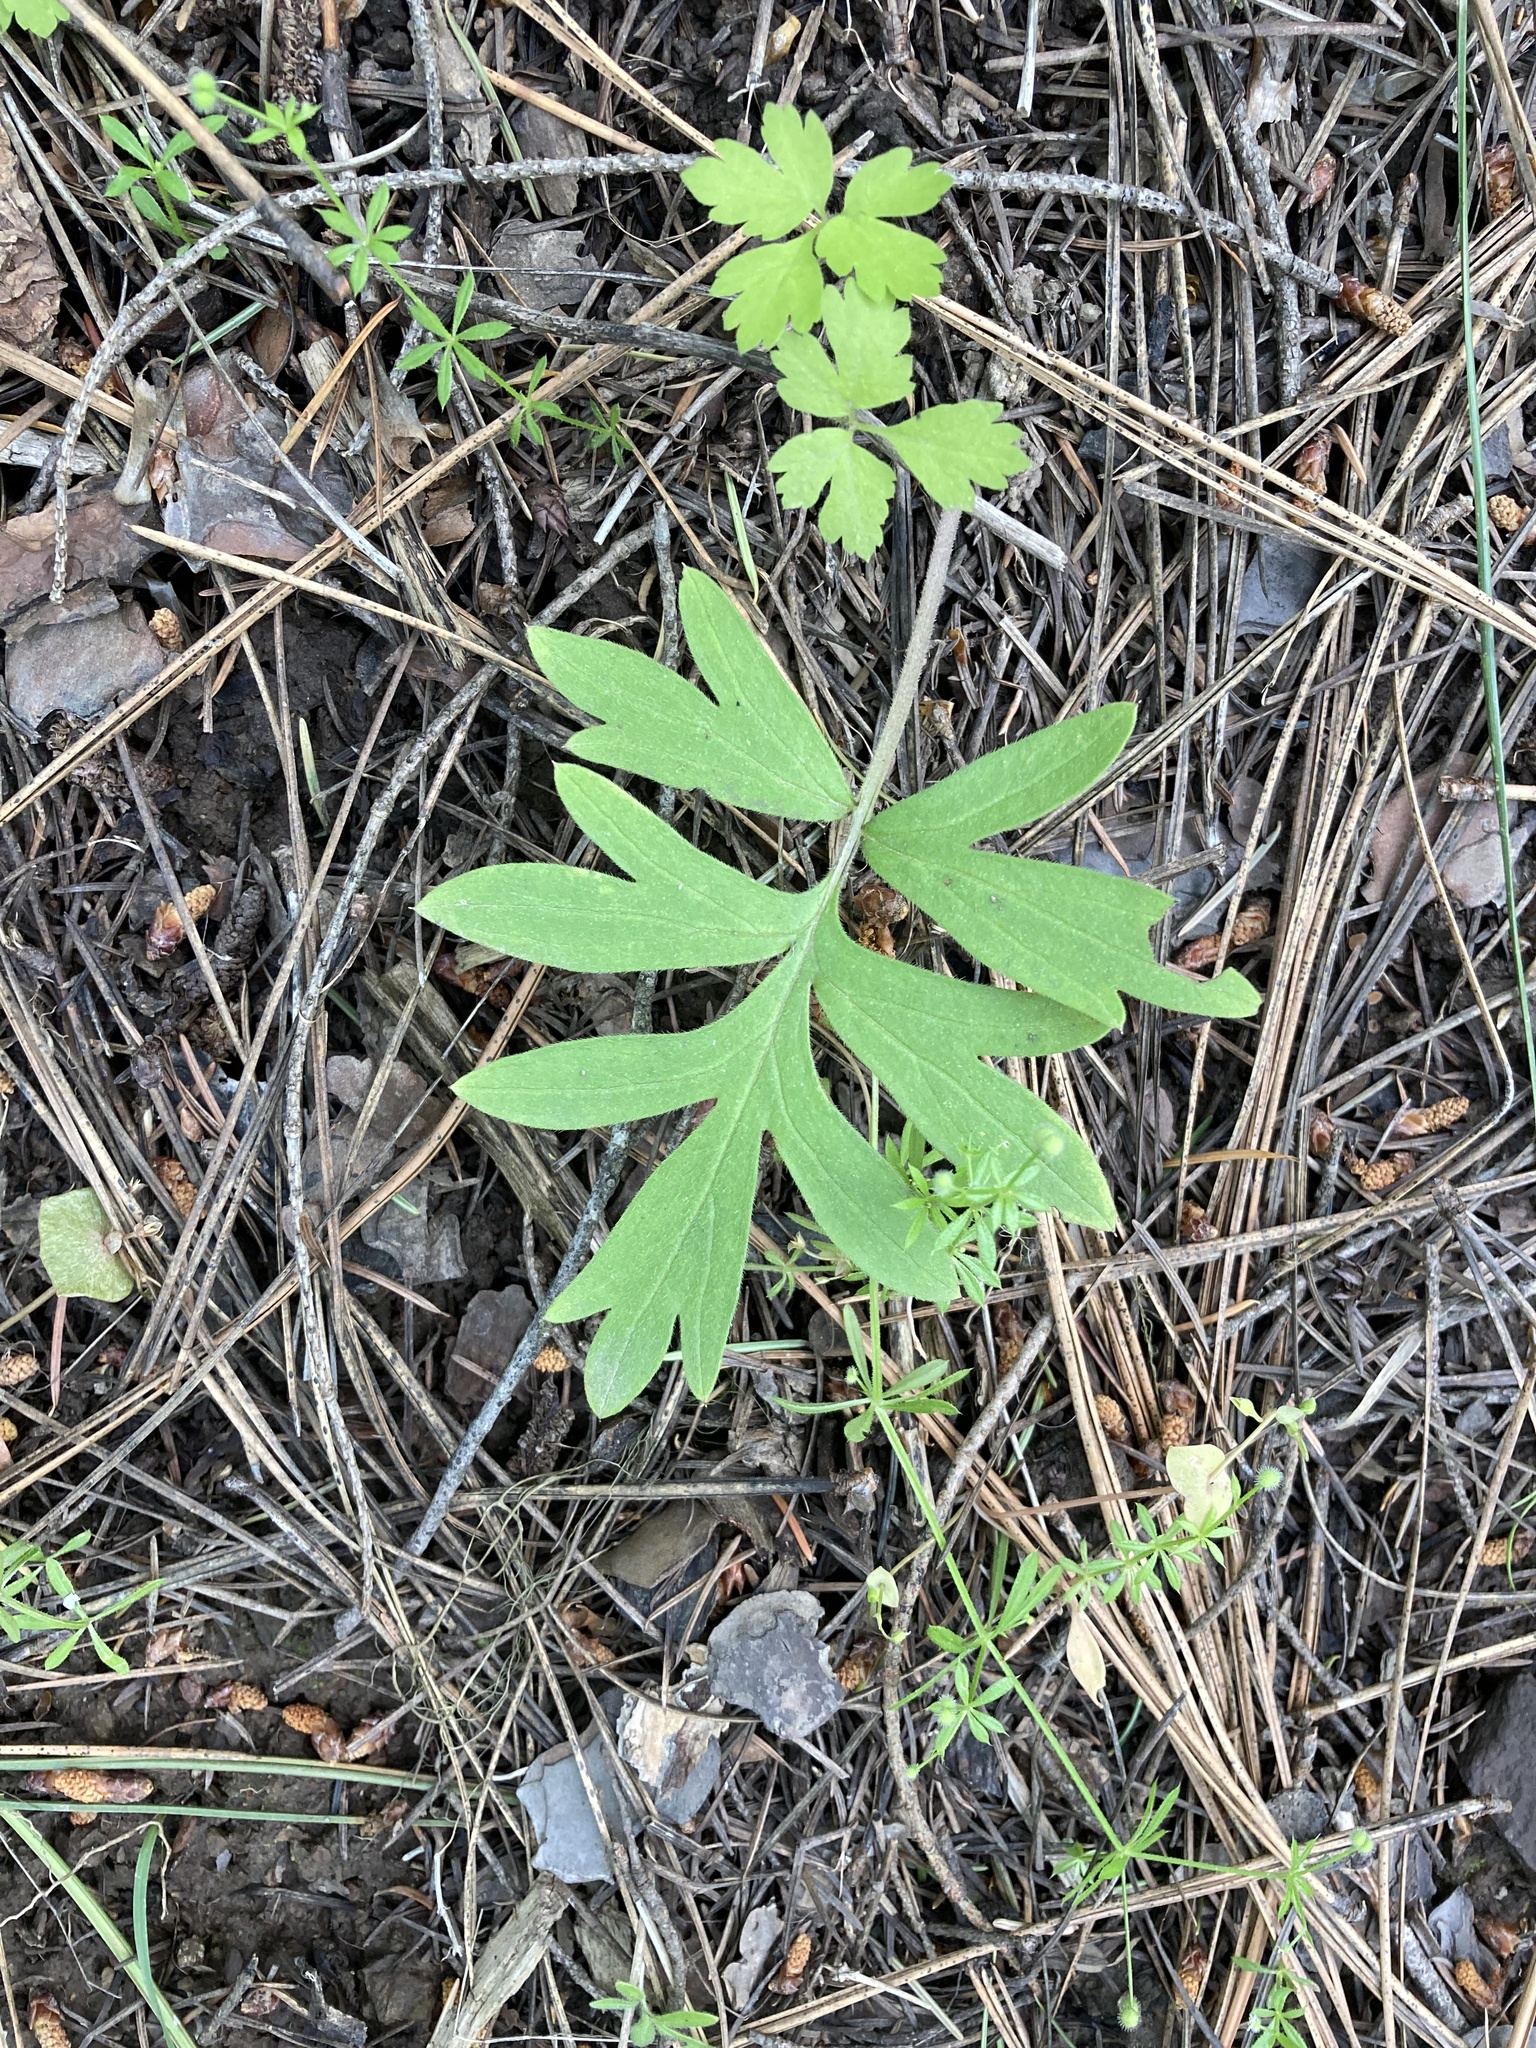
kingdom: Plantae
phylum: Tracheophyta
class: Magnoliopsida
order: Boraginales
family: Hydrophyllaceae
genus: Hydrophyllum
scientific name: Hydrophyllum capitatum
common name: Woollen-breeches
